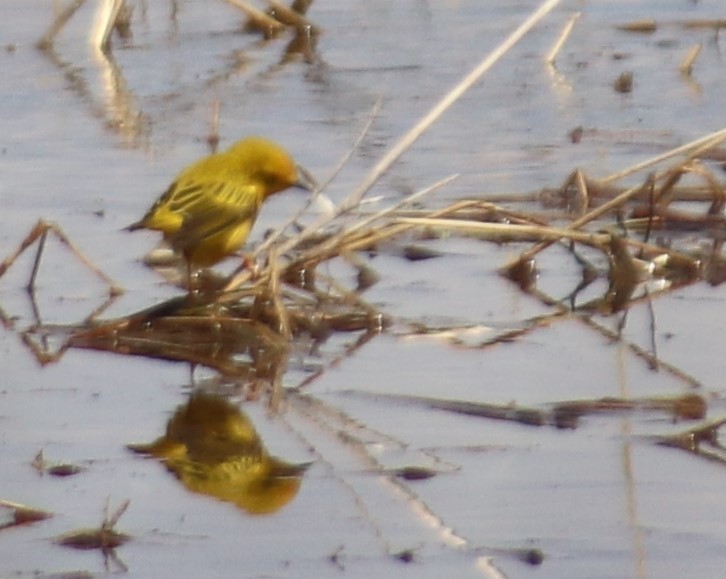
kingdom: Animalia
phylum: Chordata
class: Aves
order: Passeriformes
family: Parulidae
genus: Setophaga
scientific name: Setophaga petechia
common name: Yellow warbler
